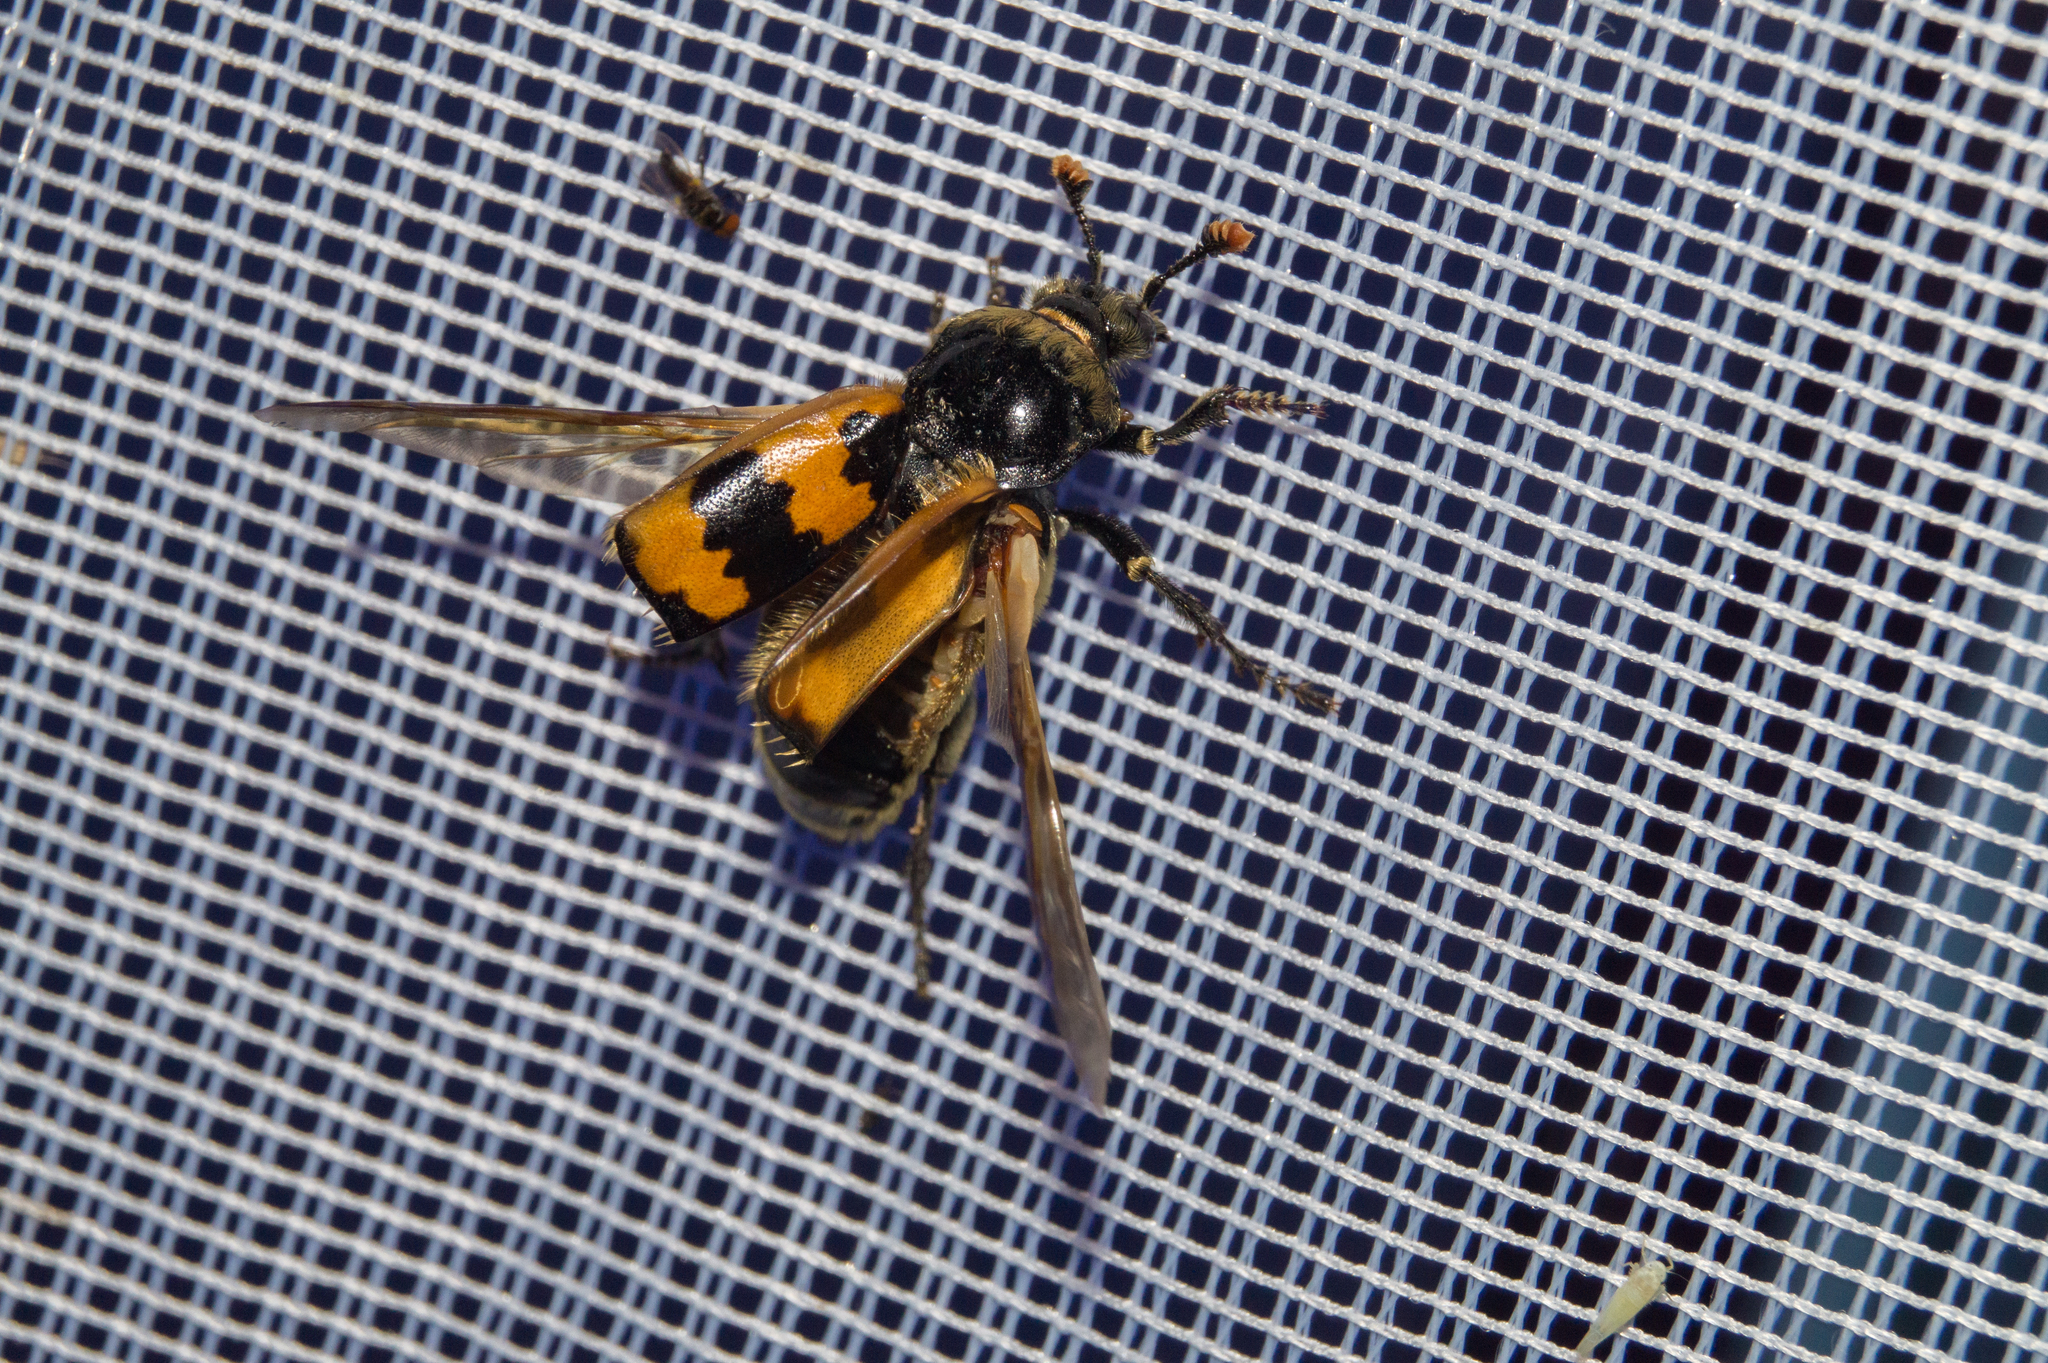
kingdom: Animalia
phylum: Arthropoda
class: Insecta
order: Coleoptera
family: Staphylinidae
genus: Nicrophorus
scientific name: Nicrophorus vespillo
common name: Common burying beetle
